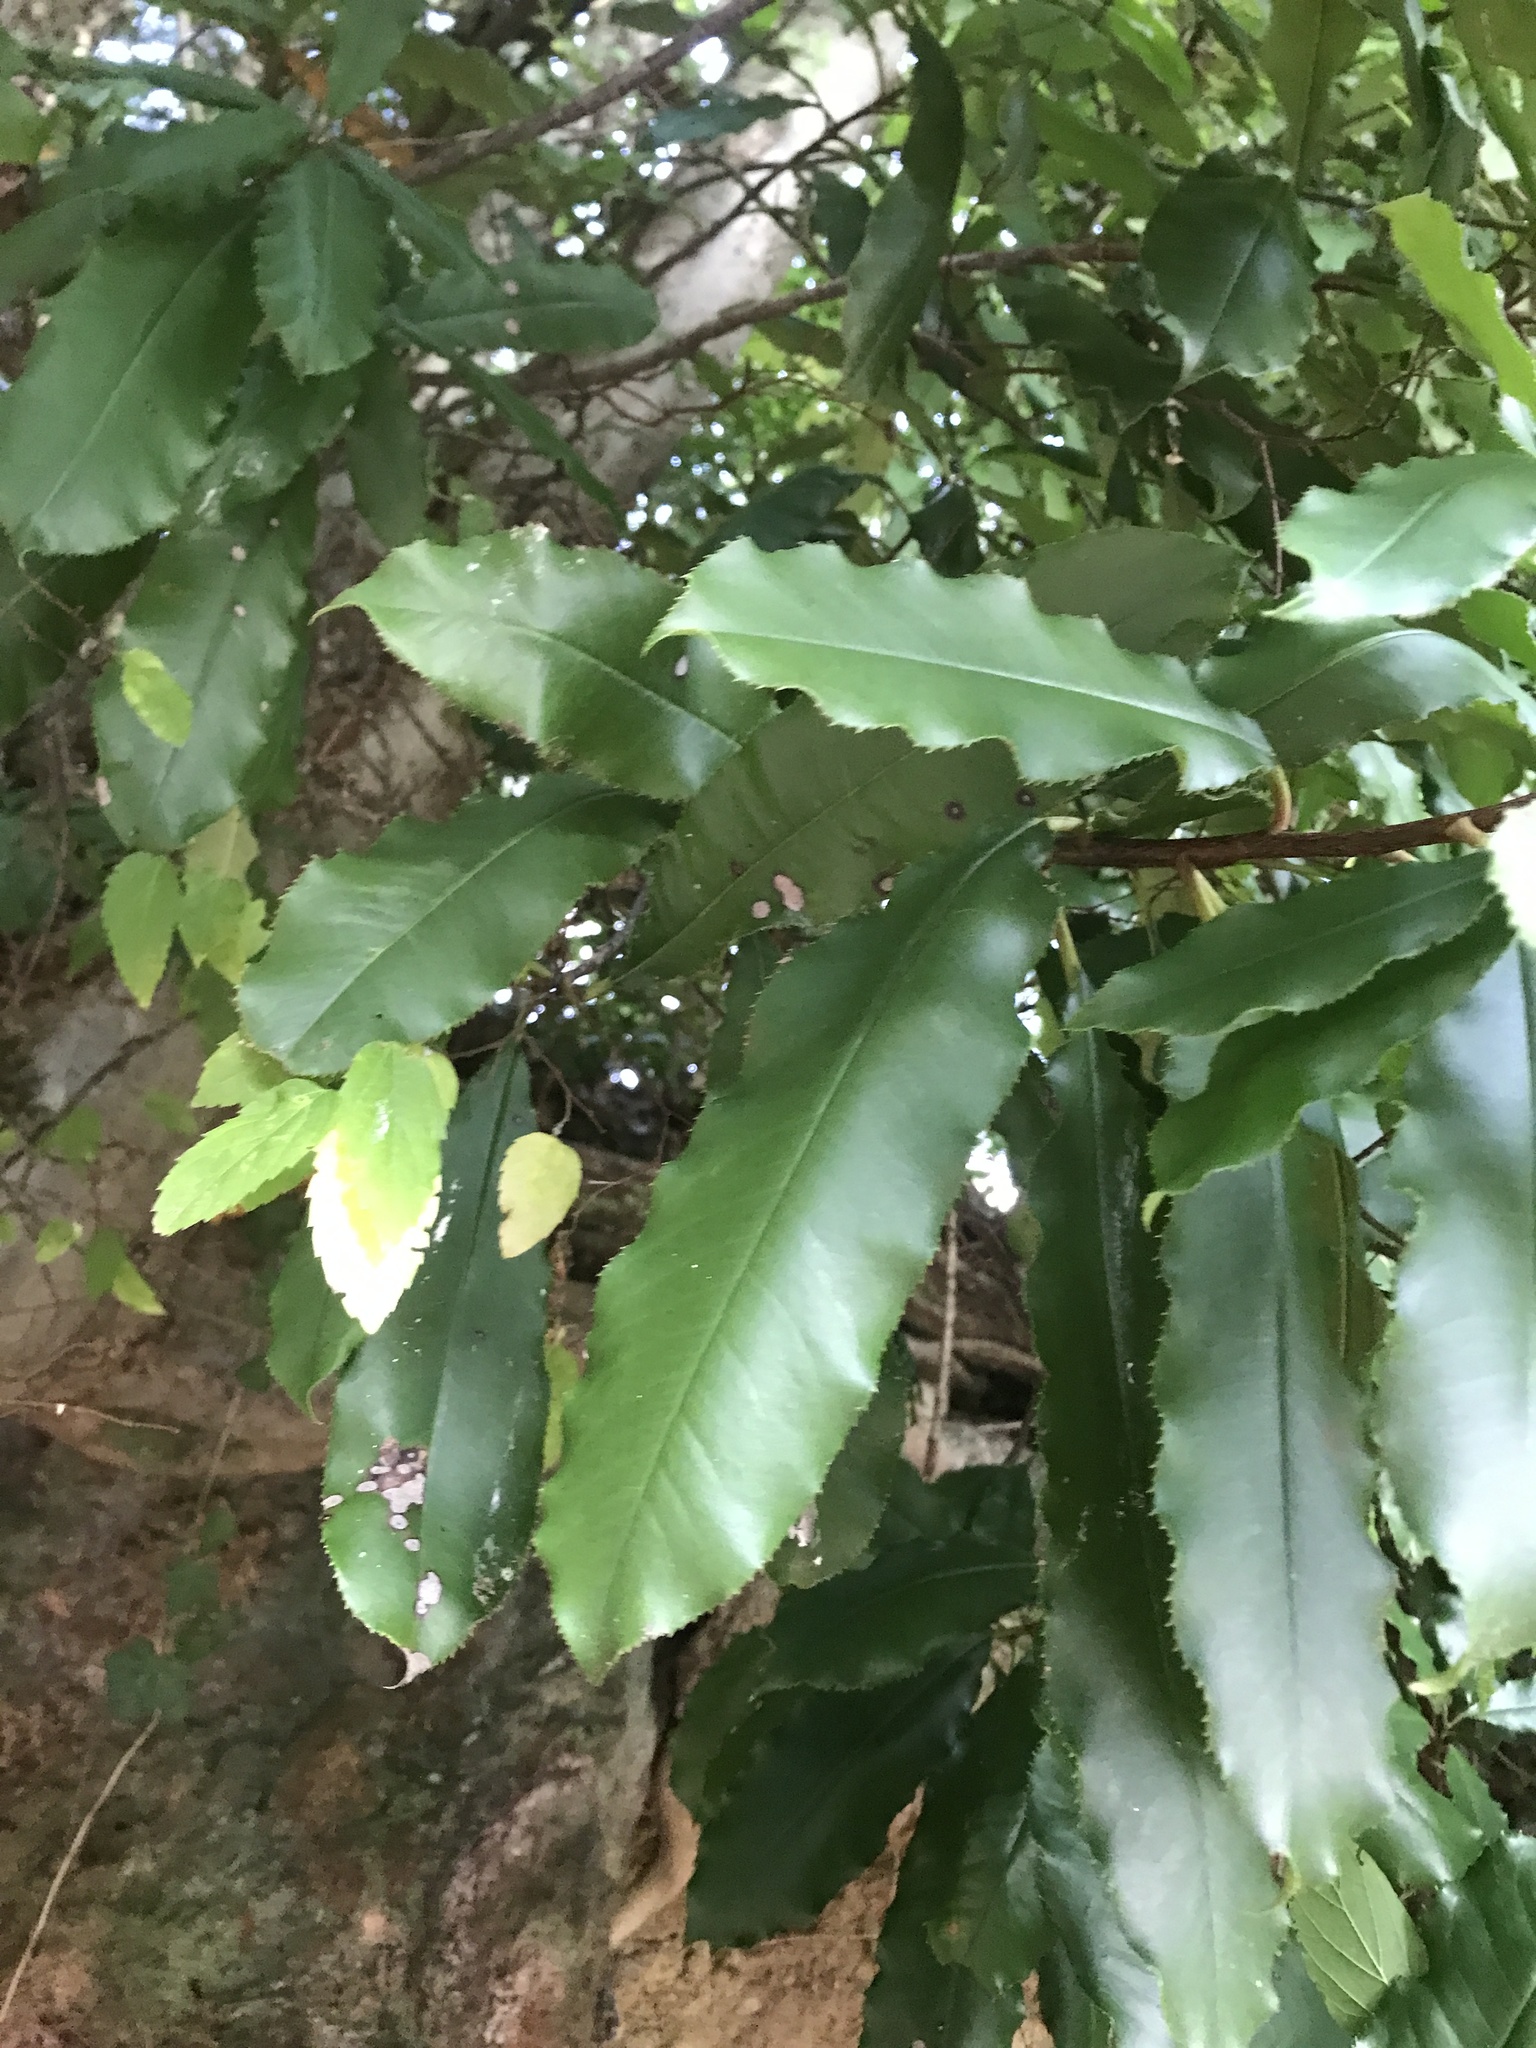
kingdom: Plantae
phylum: Tracheophyta
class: Magnoliopsida
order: Rosales
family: Rosaceae
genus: Photinia
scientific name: Photinia serratifolia
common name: Taiwanese photinia
